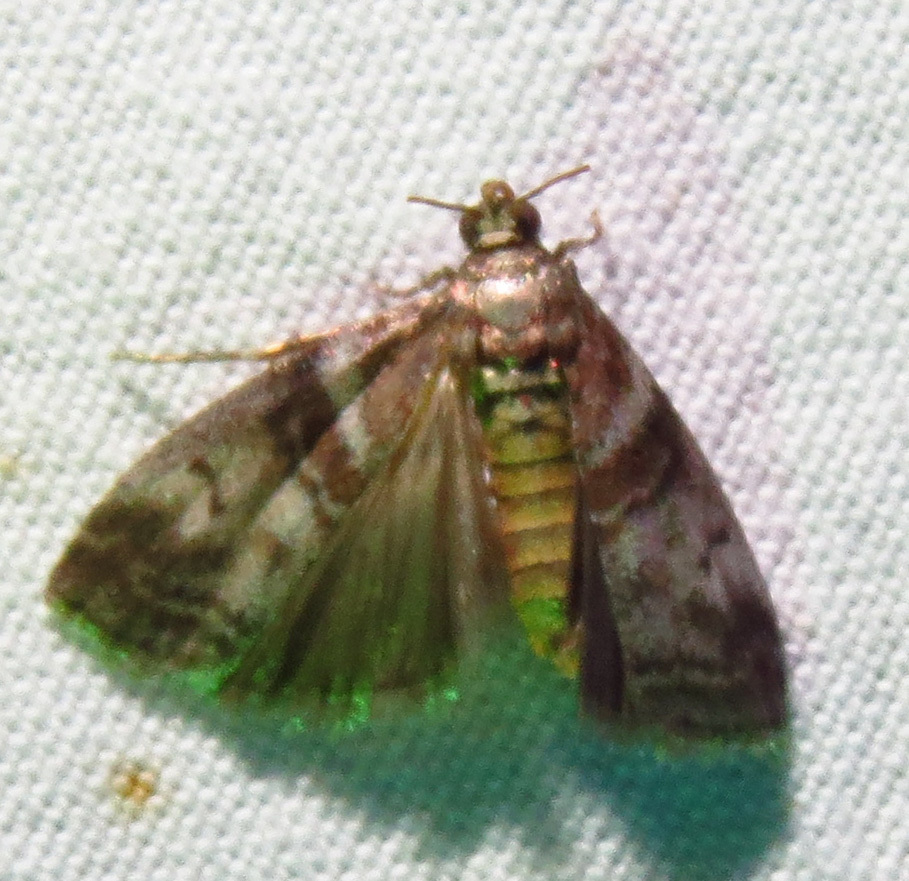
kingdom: Animalia
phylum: Arthropoda
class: Insecta
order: Lepidoptera
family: Pyralidae
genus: Sciota
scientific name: Sciota uvinella
